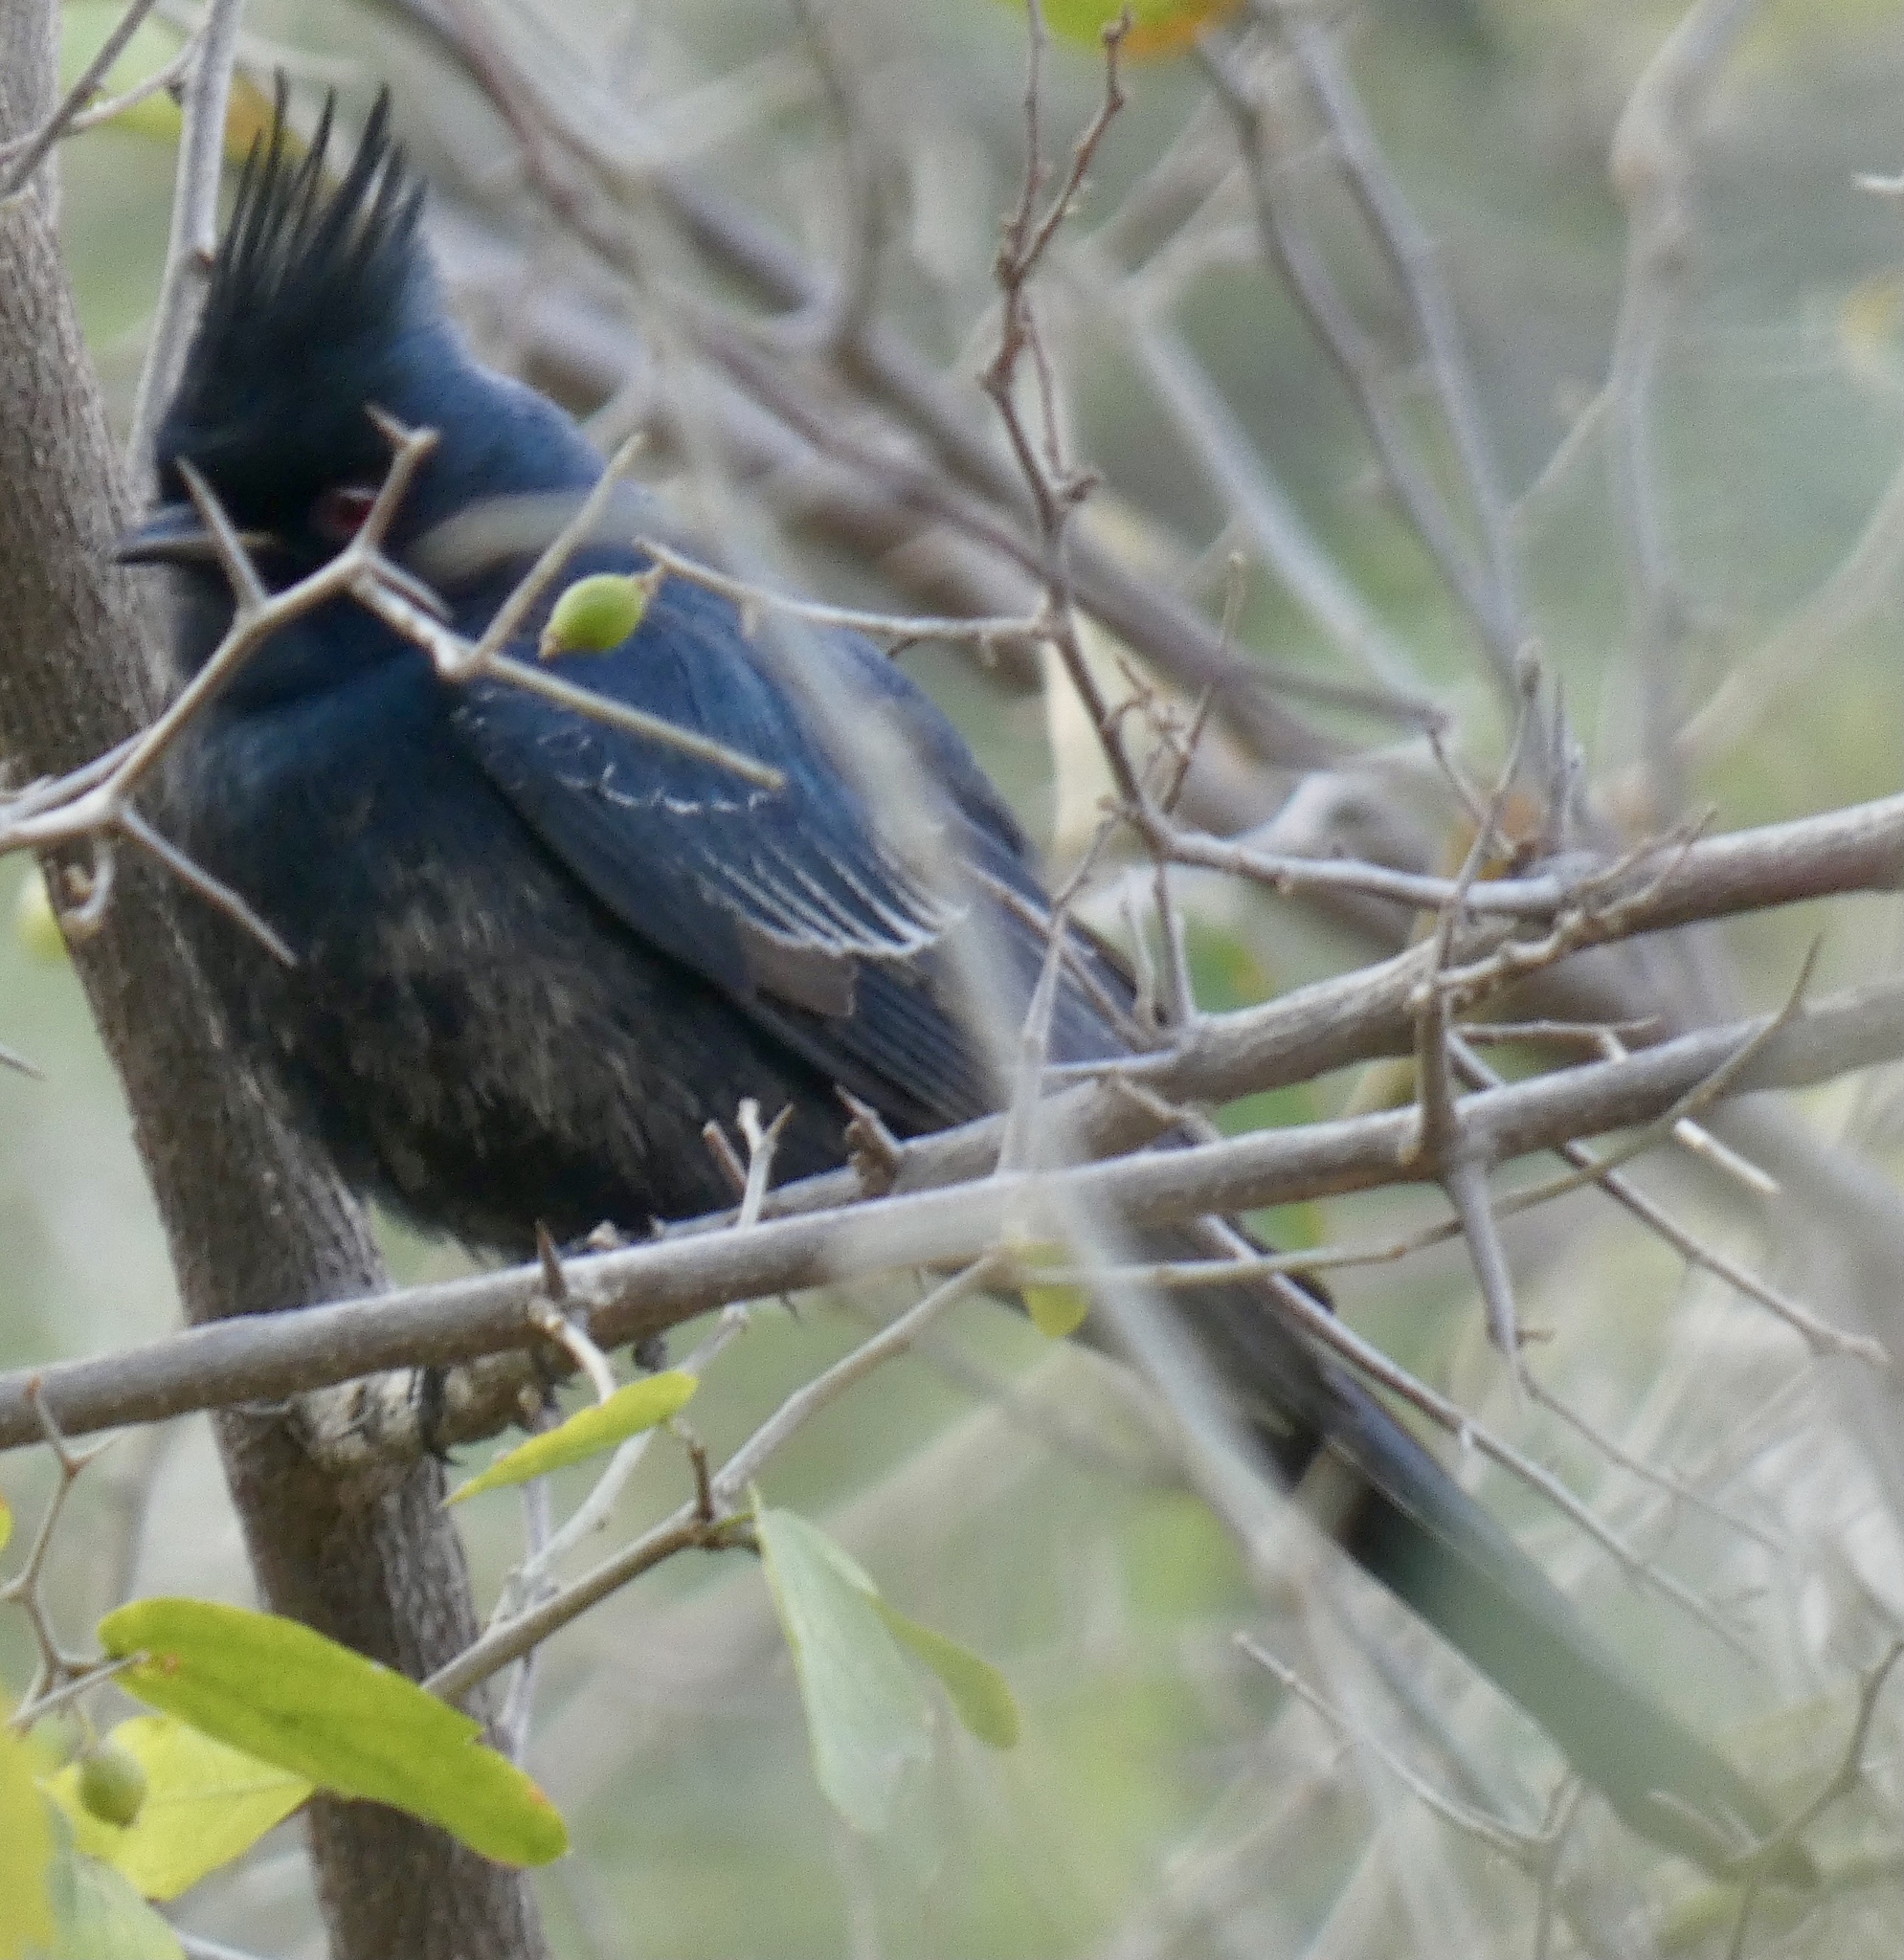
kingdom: Animalia
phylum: Chordata
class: Aves
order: Passeriformes
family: Ptilogonatidae
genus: Phainopepla
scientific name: Phainopepla nitens
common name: Phainopepla
